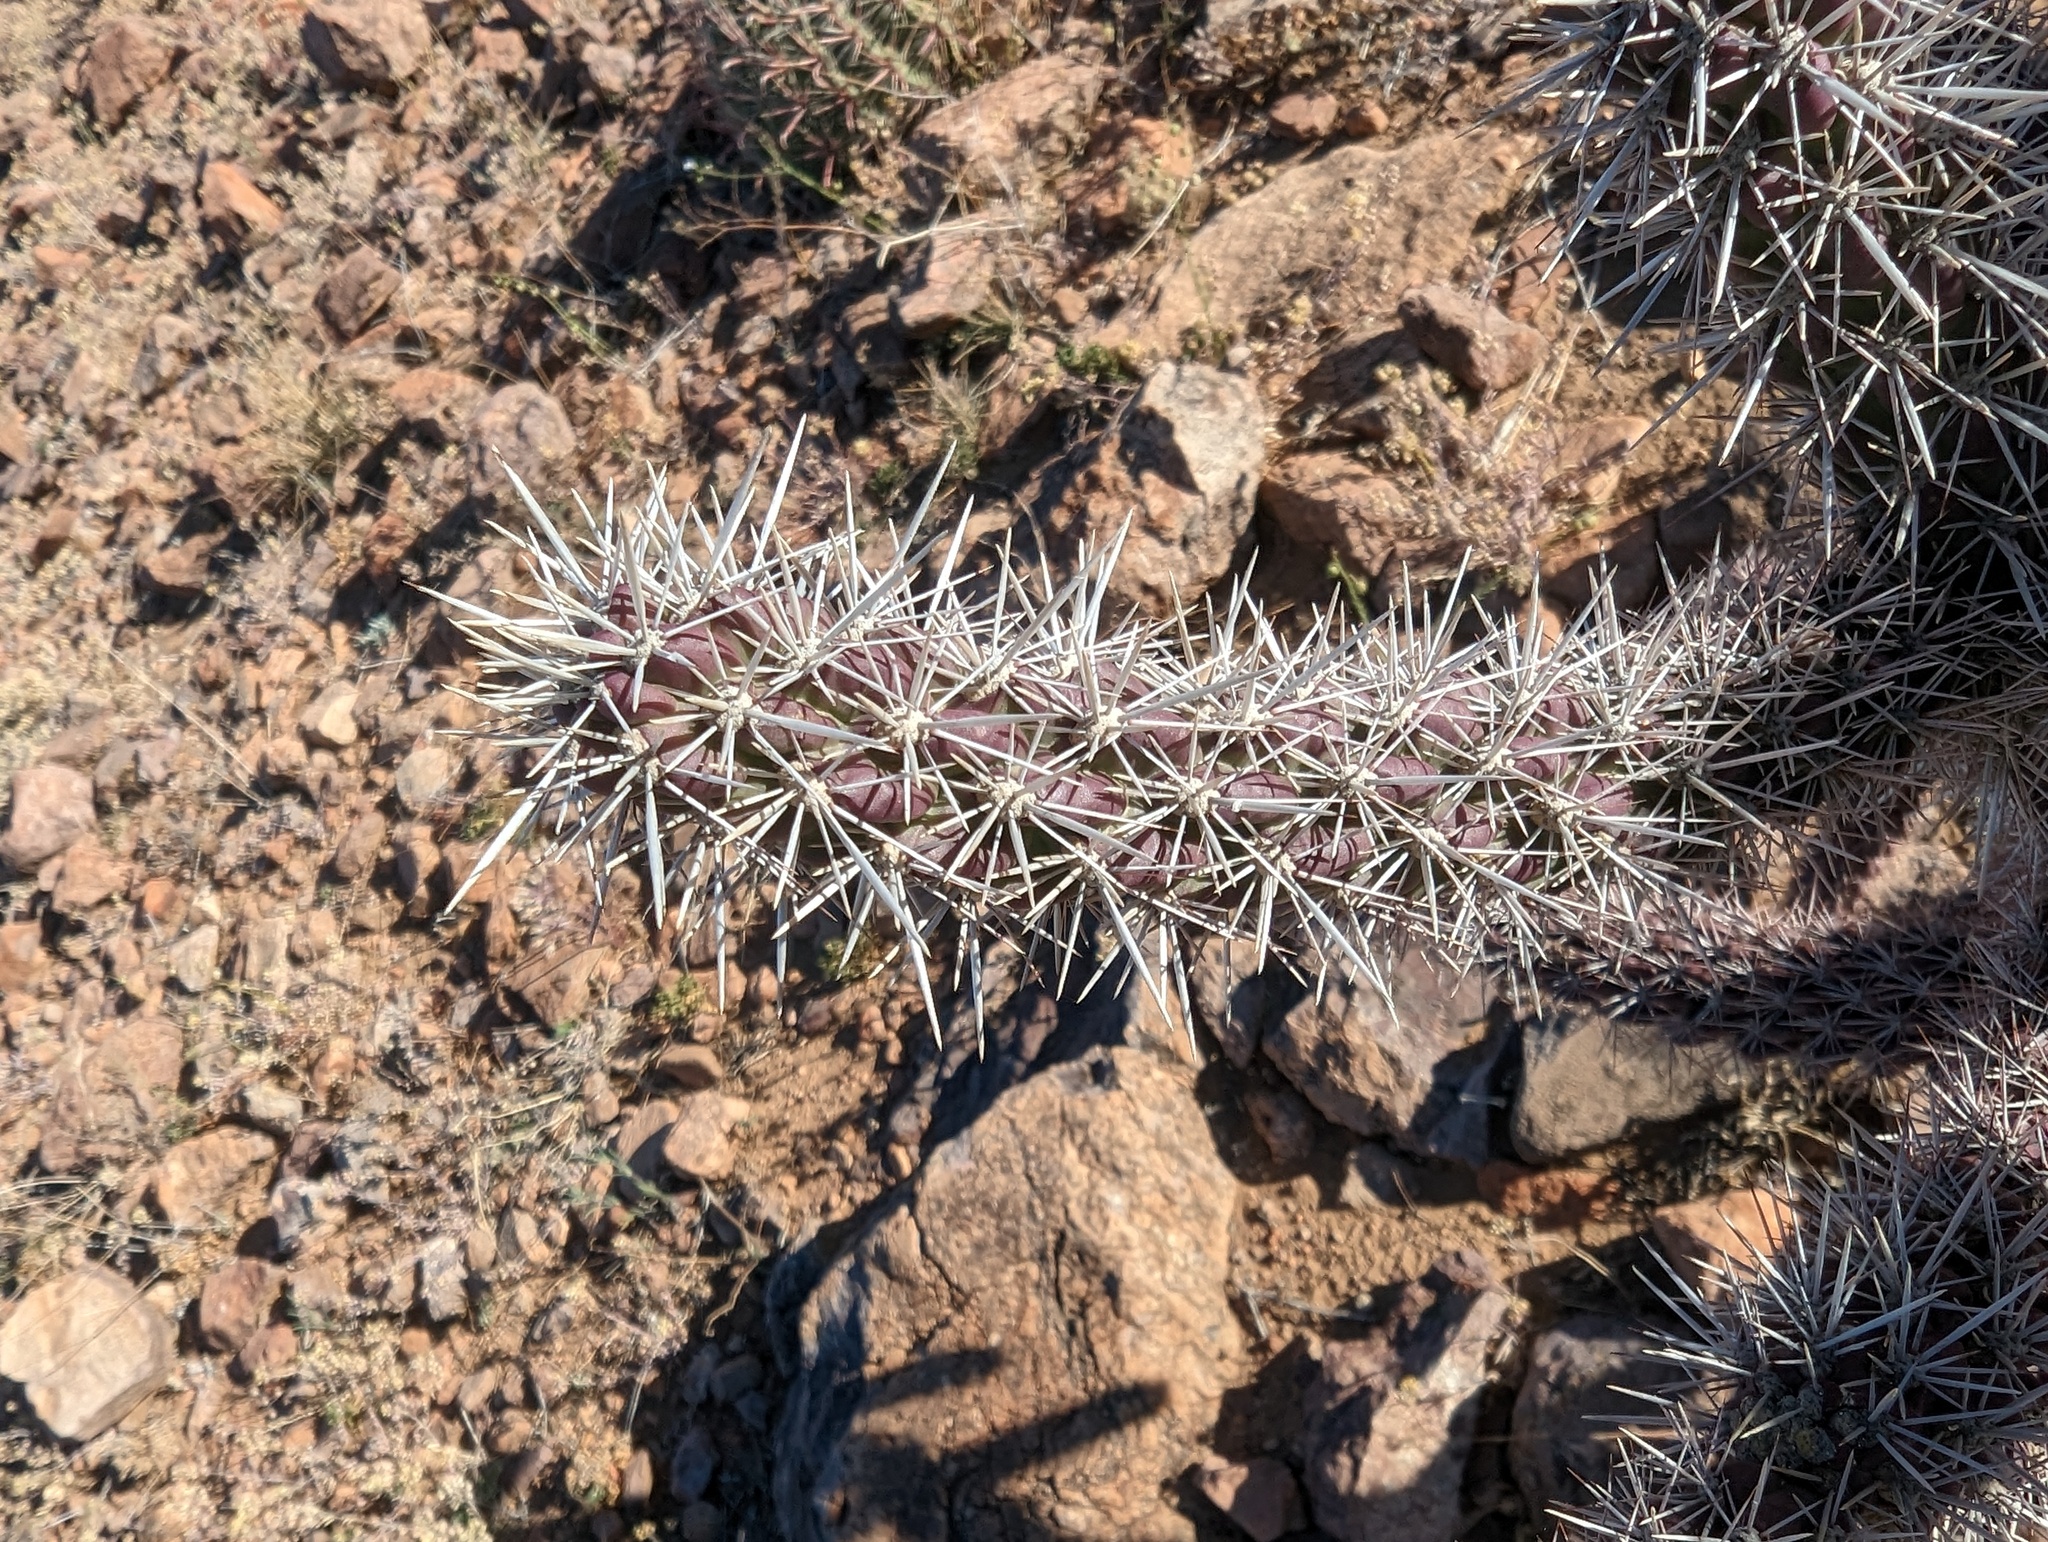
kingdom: Plantae
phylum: Tracheophyta
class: Magnoliopsida
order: Caryophyllales
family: Cactaceae
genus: Cylindropuntia
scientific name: Cylindropuntia imbricata
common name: Candelabrum cactus
